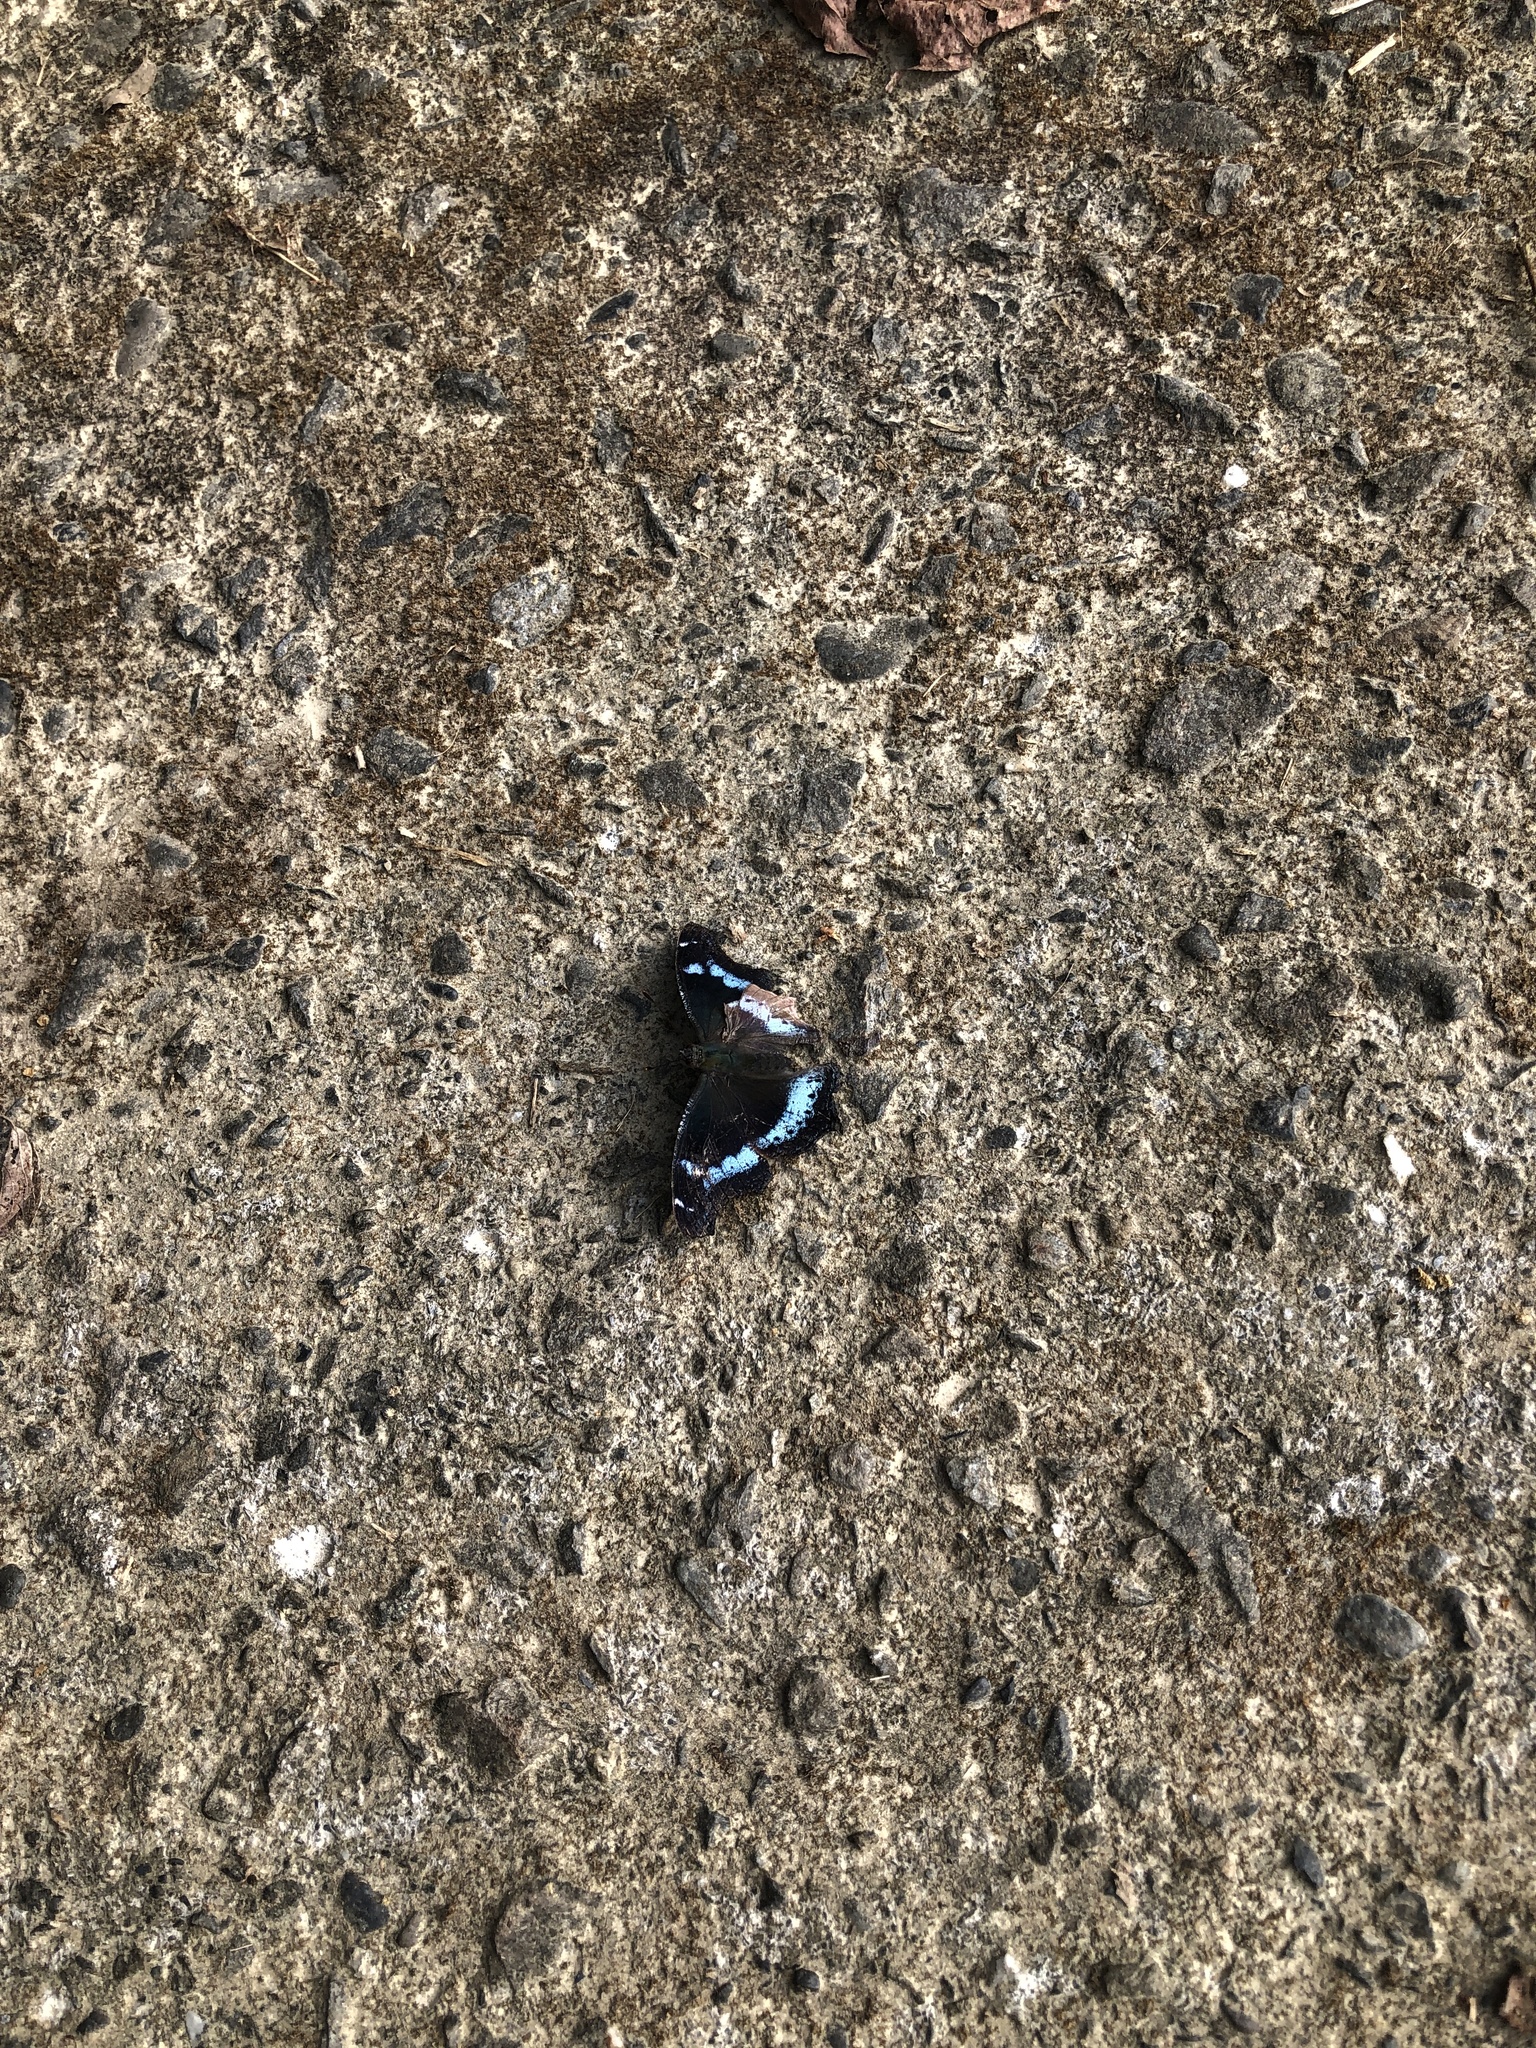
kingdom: Animalia
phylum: Arthropoda
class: Insecta
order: Lepidoptera
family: Nymphalidae
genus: Vanessa
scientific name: Vanessa Kaniska canace
